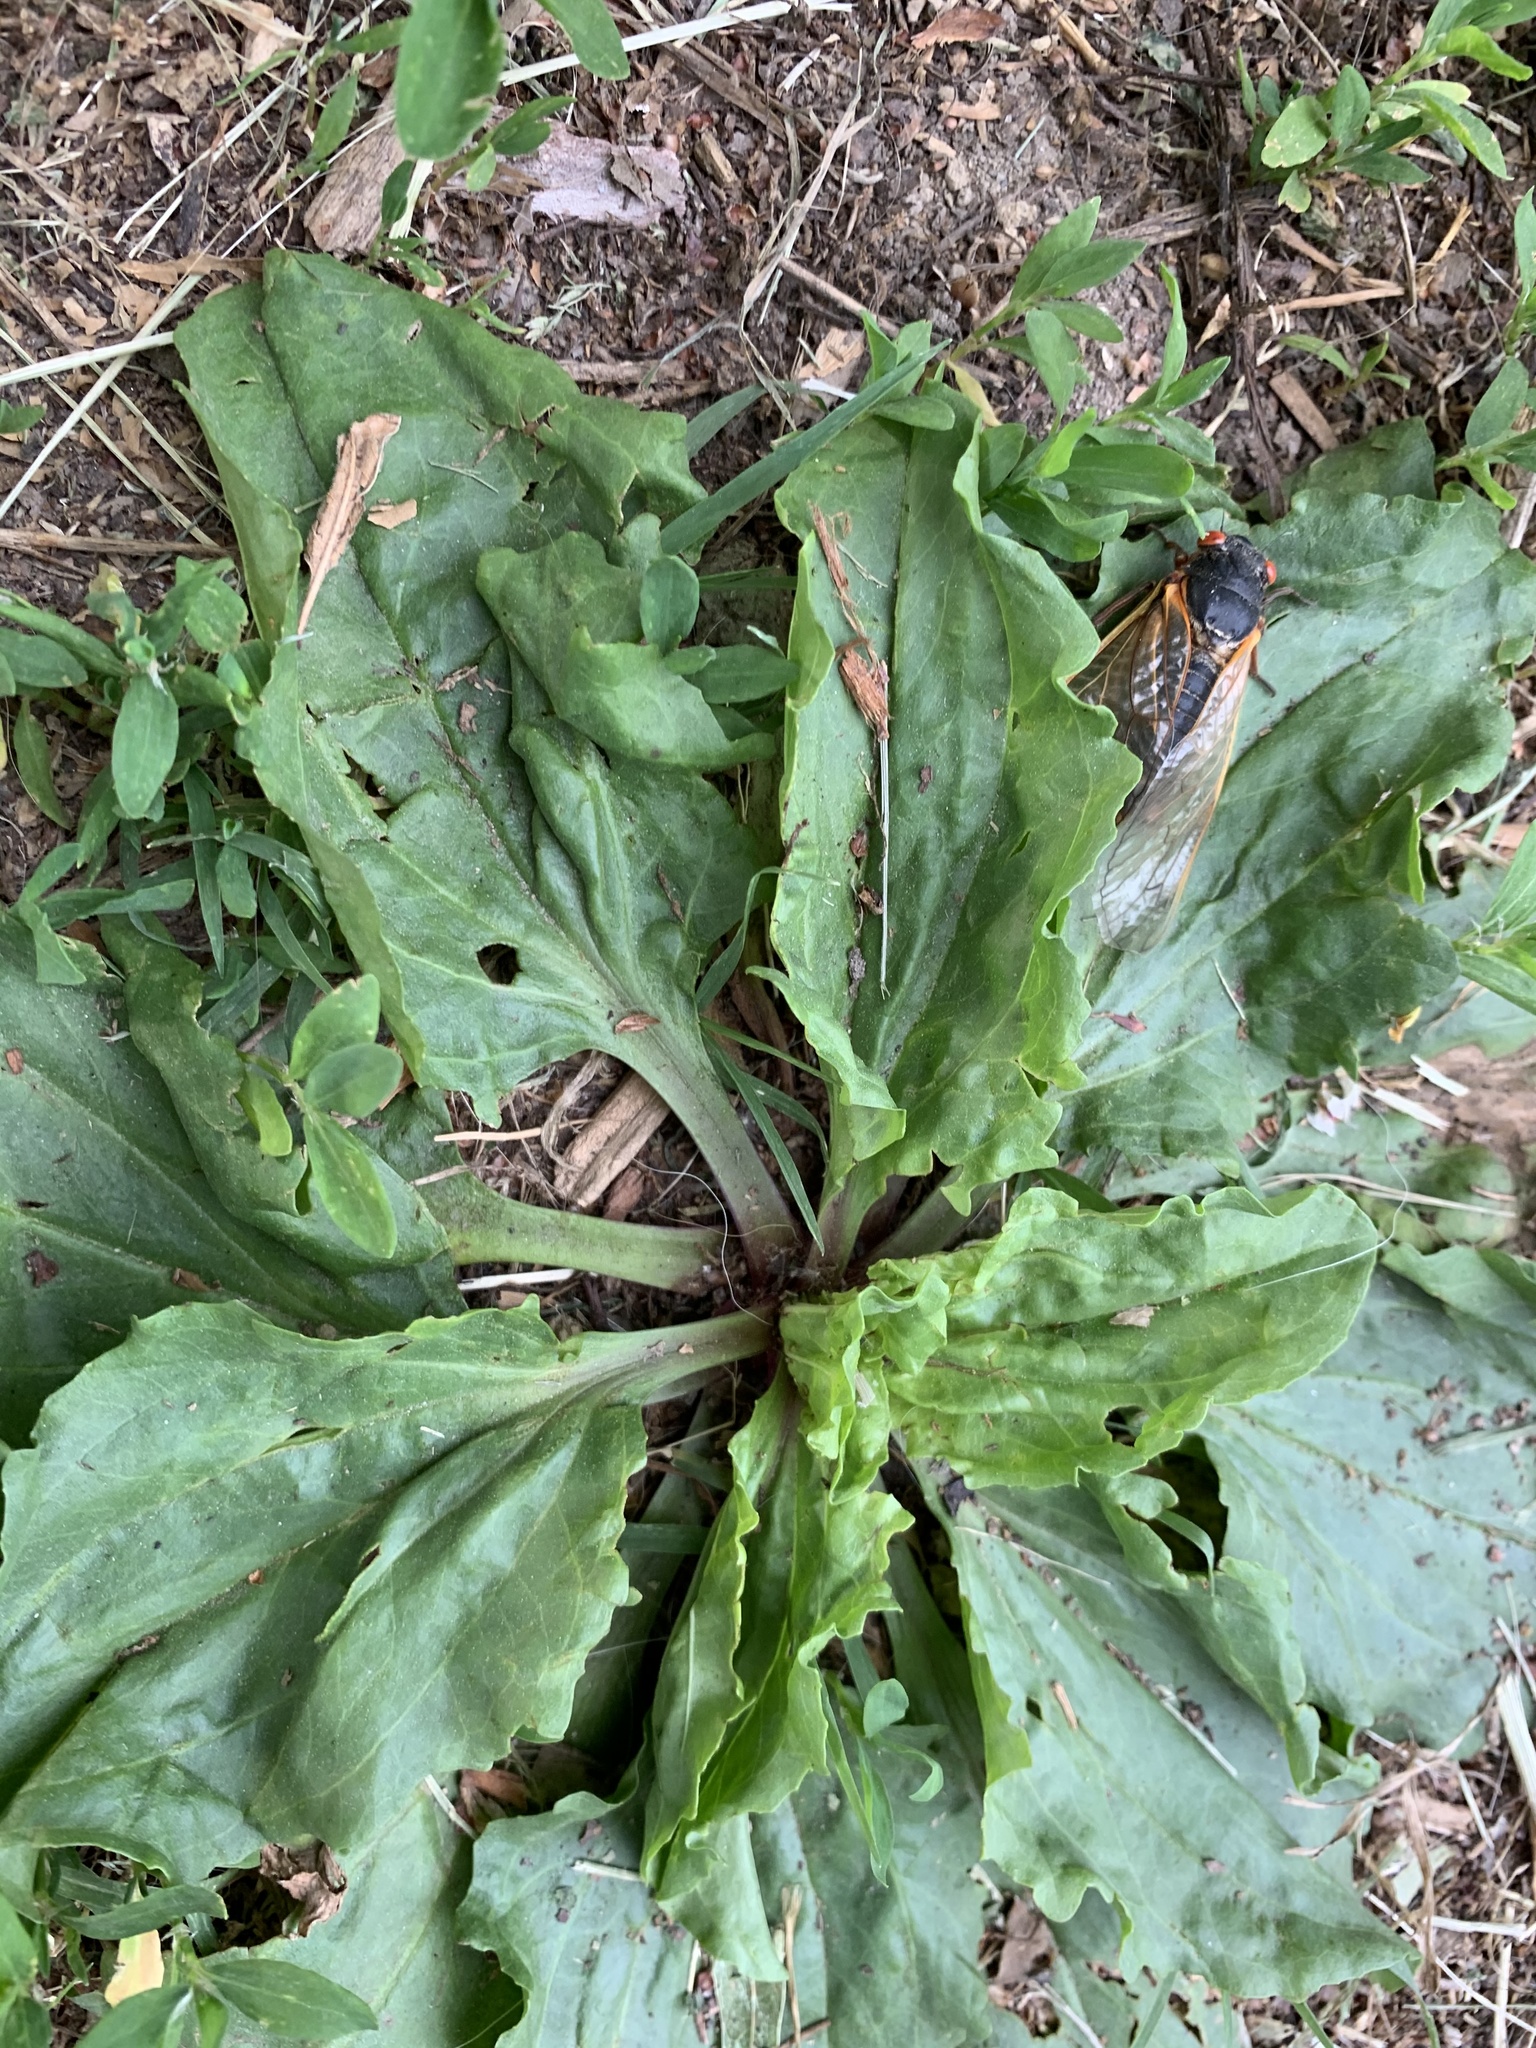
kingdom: Plantae
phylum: Tracheophyta
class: Magnoliopsida
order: Lamiales
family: Plantaginaceae
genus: Plantago
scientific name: Plantago rugelii
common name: American plantain
